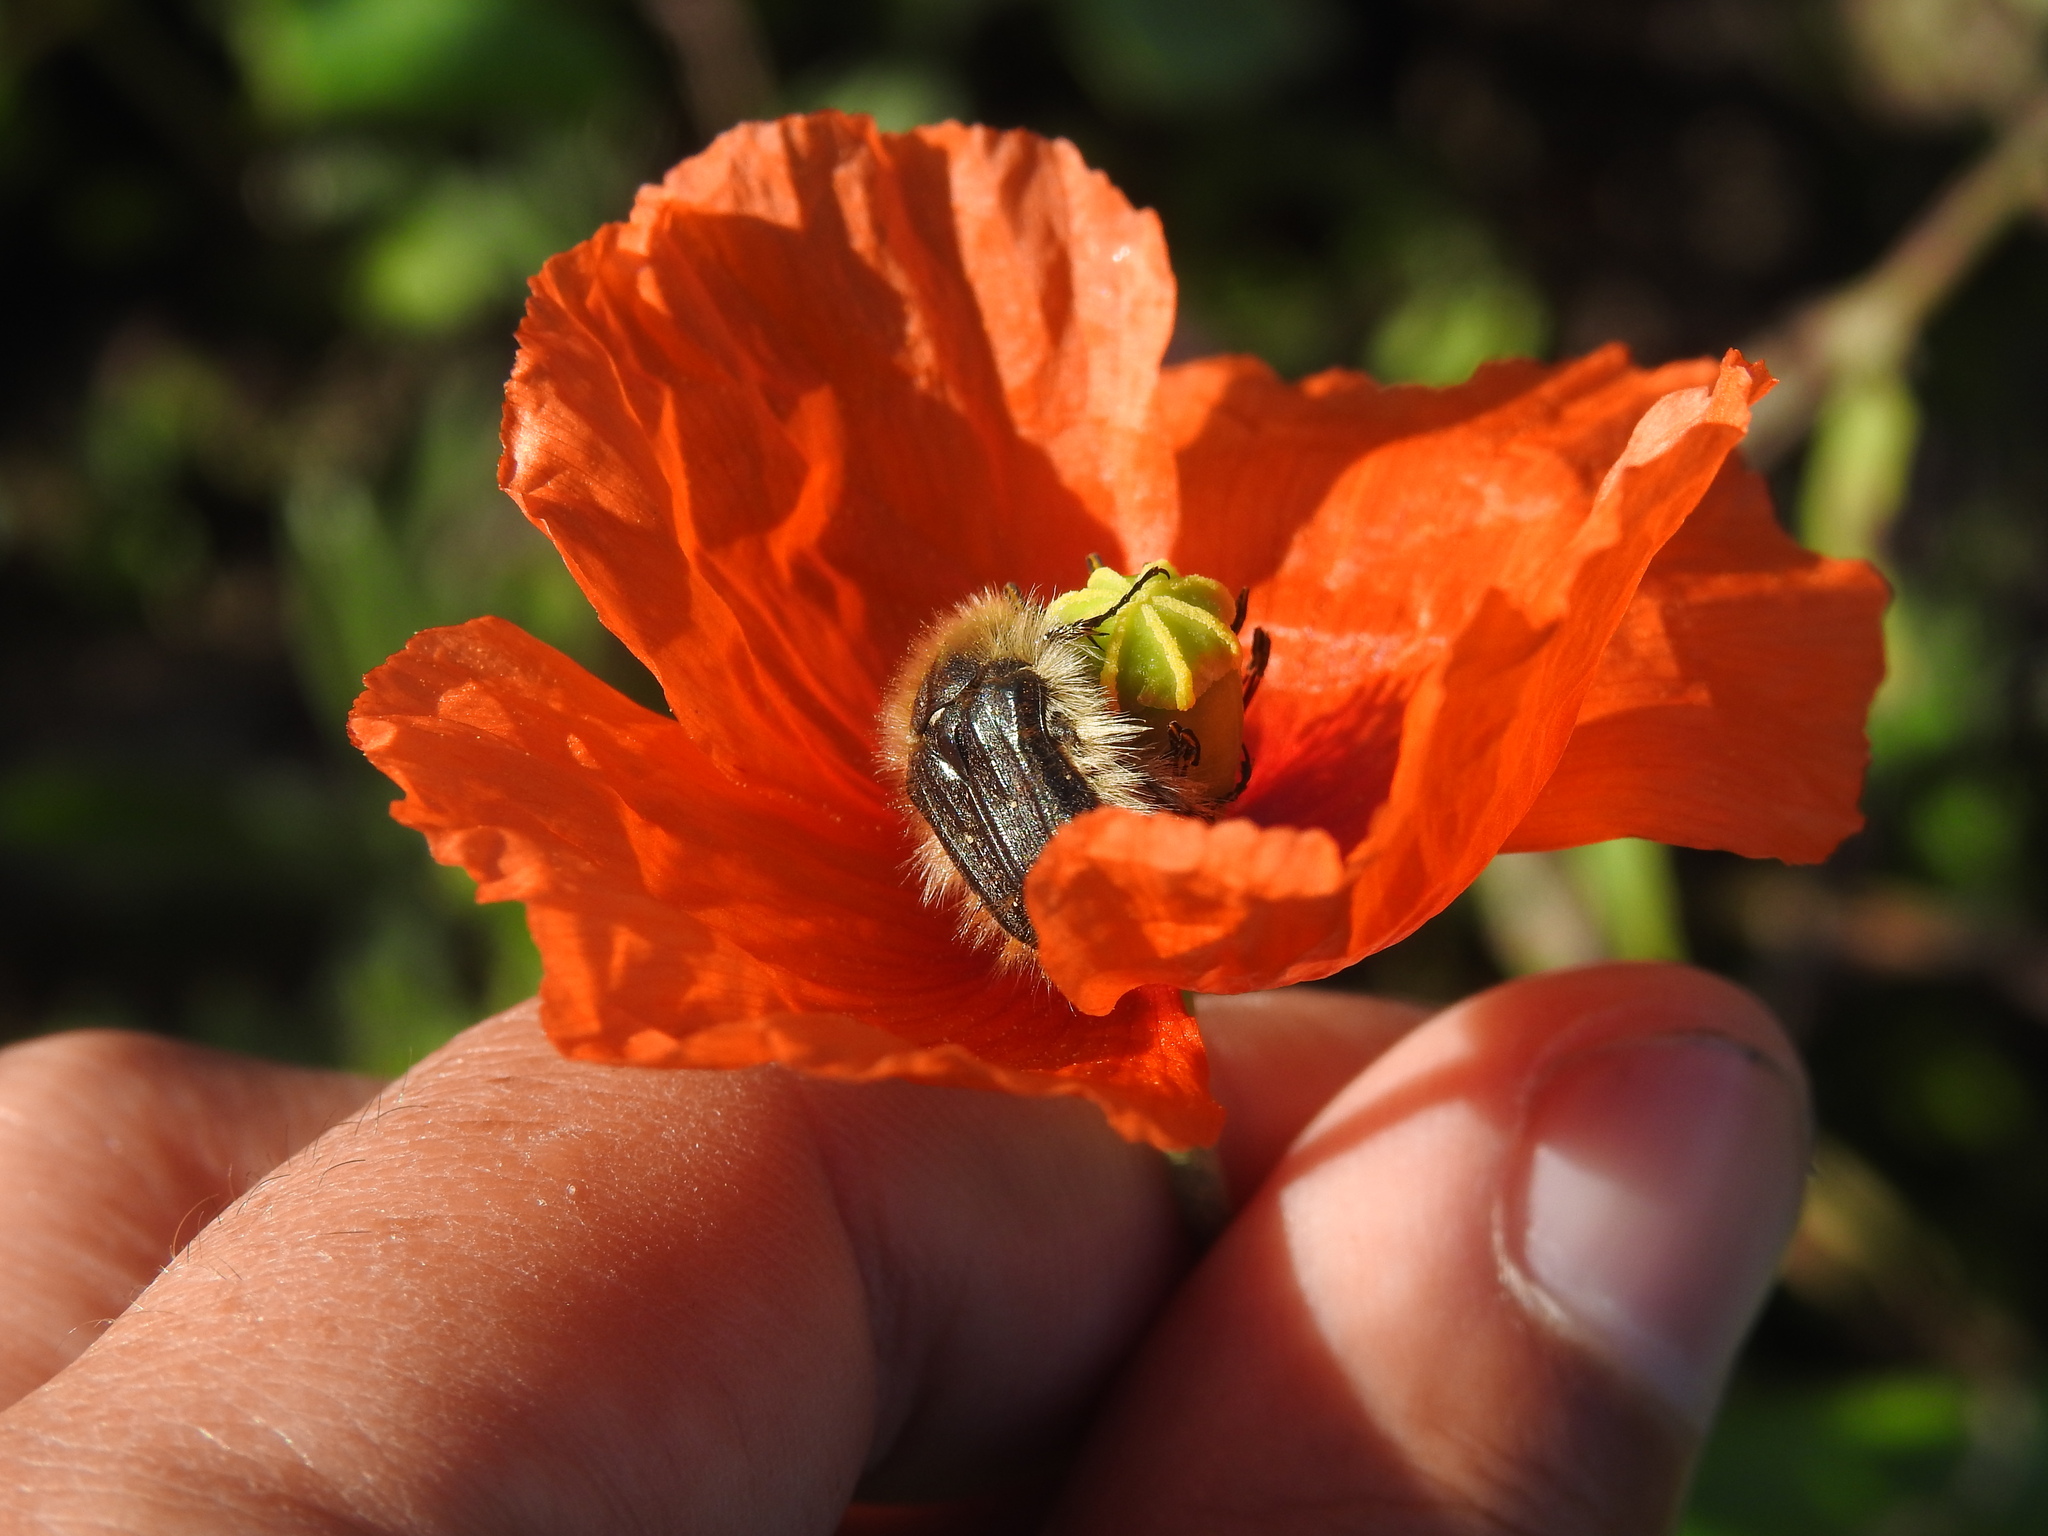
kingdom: Animalia
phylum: Arthropoda
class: Insecta
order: Coleoptera
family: Scarabaeidae
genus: Tropinota
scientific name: Tropinota squalida
